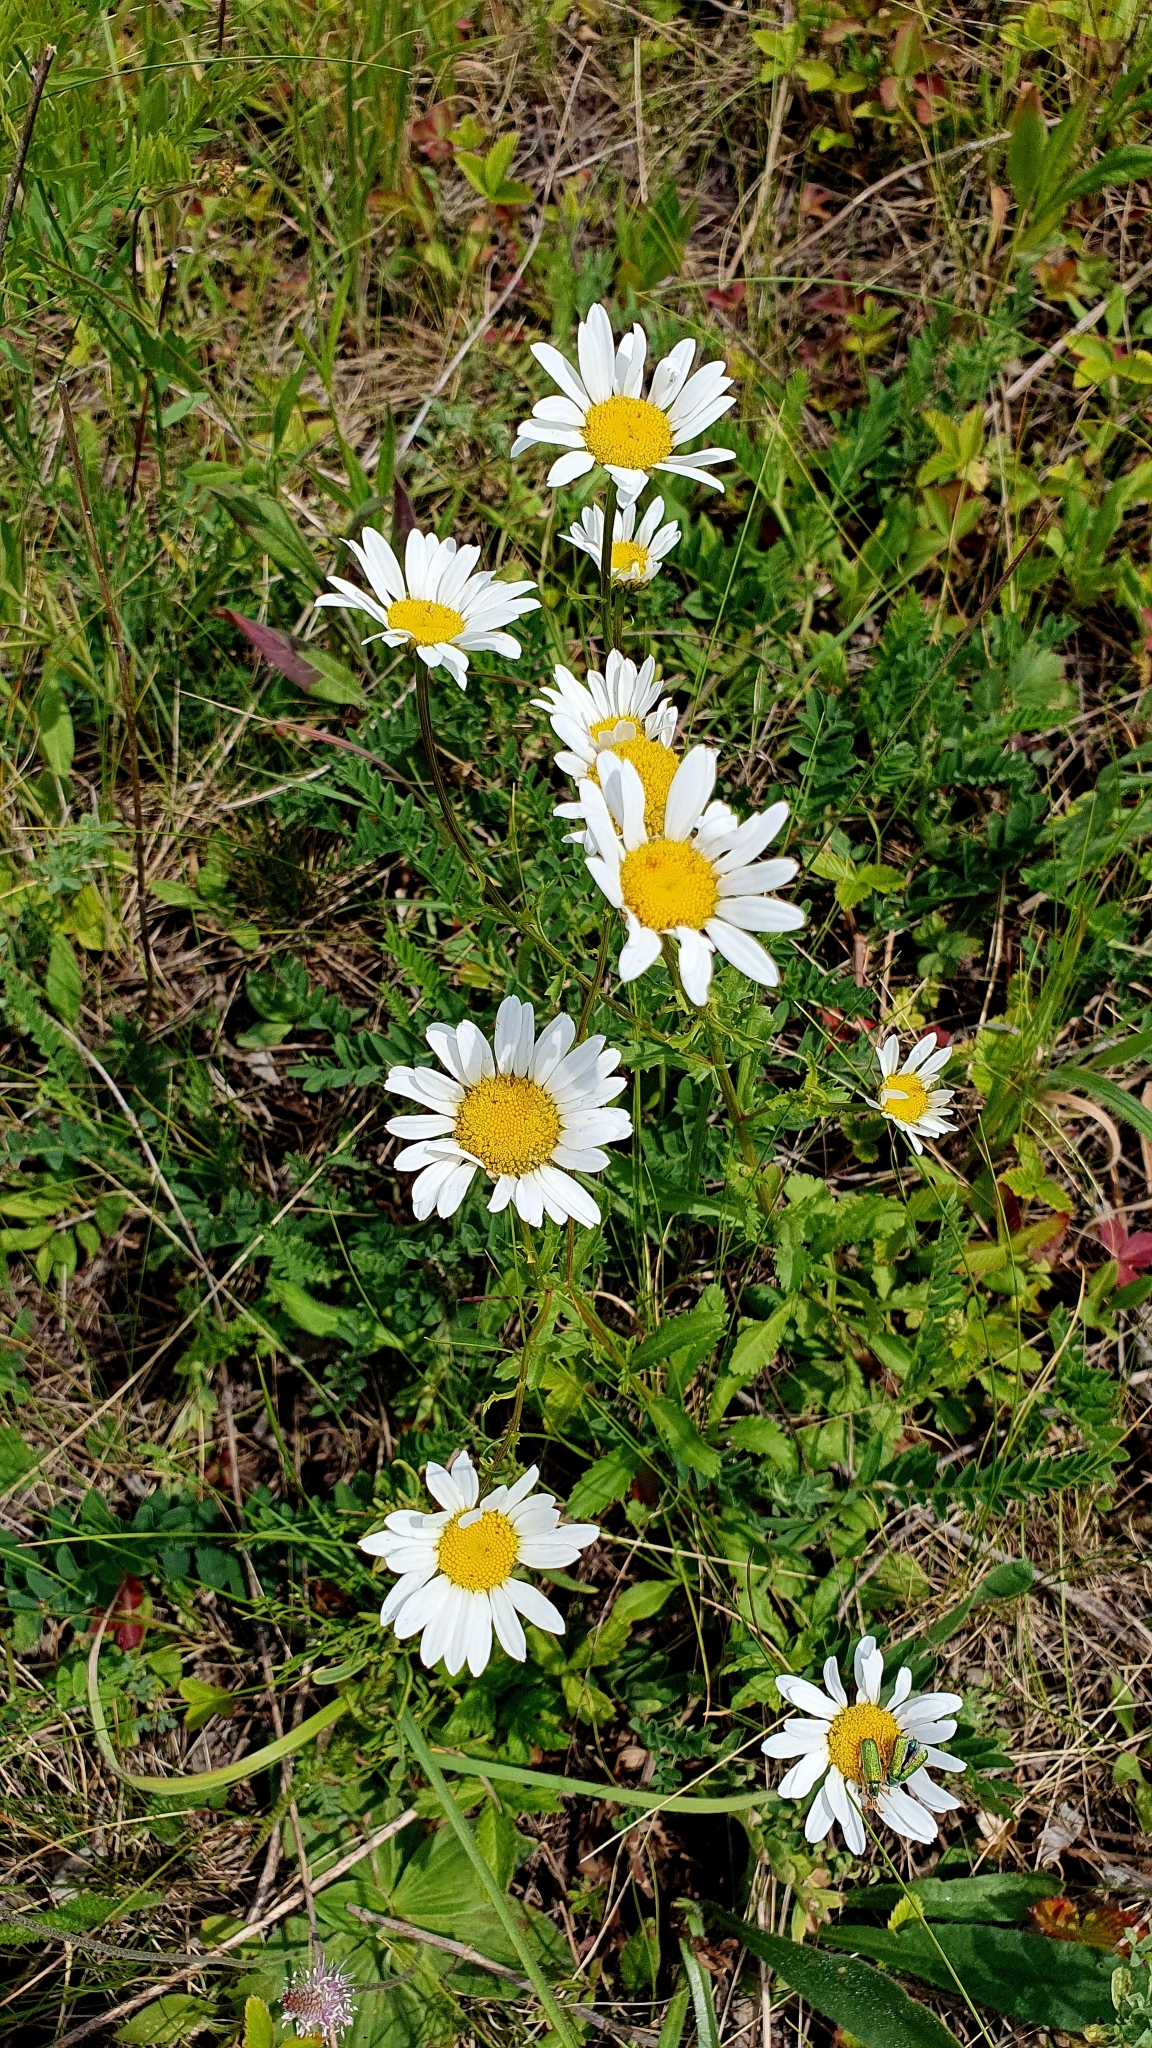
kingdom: Plantae
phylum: Tracheophyta
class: Magnoliopsida
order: Asterales
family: Asteraceae
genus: Leucanthemum
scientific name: Leucanthemum vulgare
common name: Oxeye daisy
